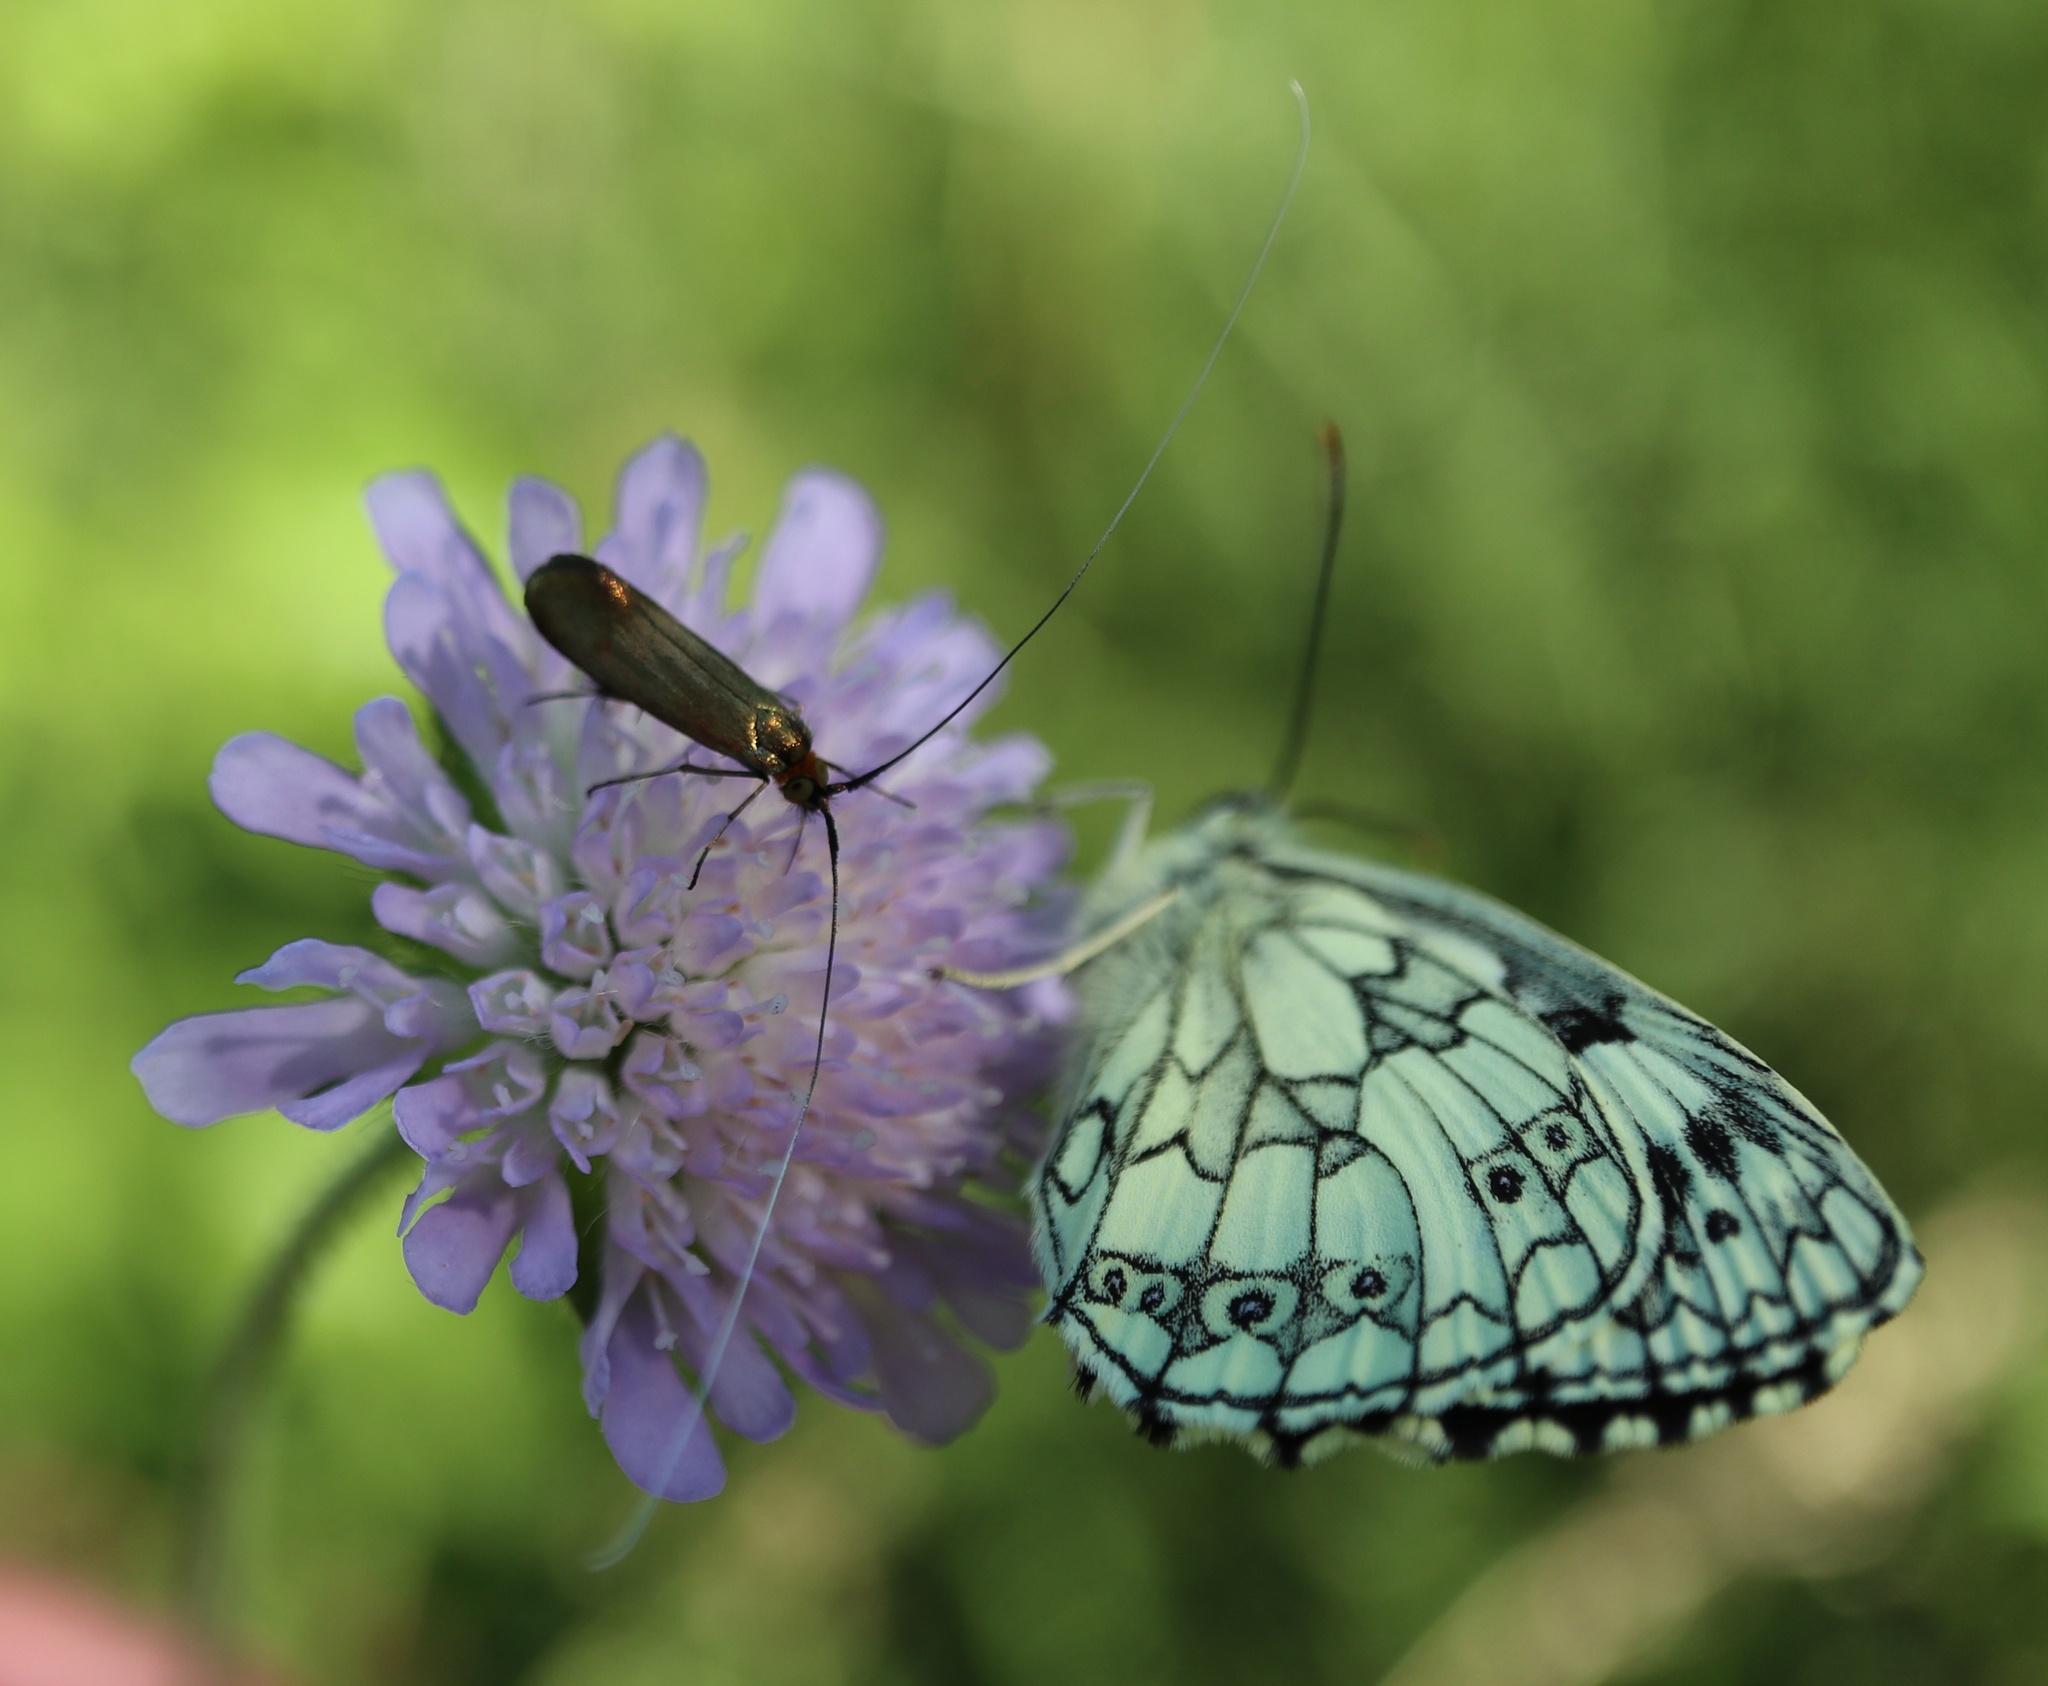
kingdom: Animalia
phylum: Arthropoda
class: Insecta
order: Lepidoptera
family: Nymphalidae
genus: Melanargia
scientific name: Melanargia galathea
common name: Marbled white
